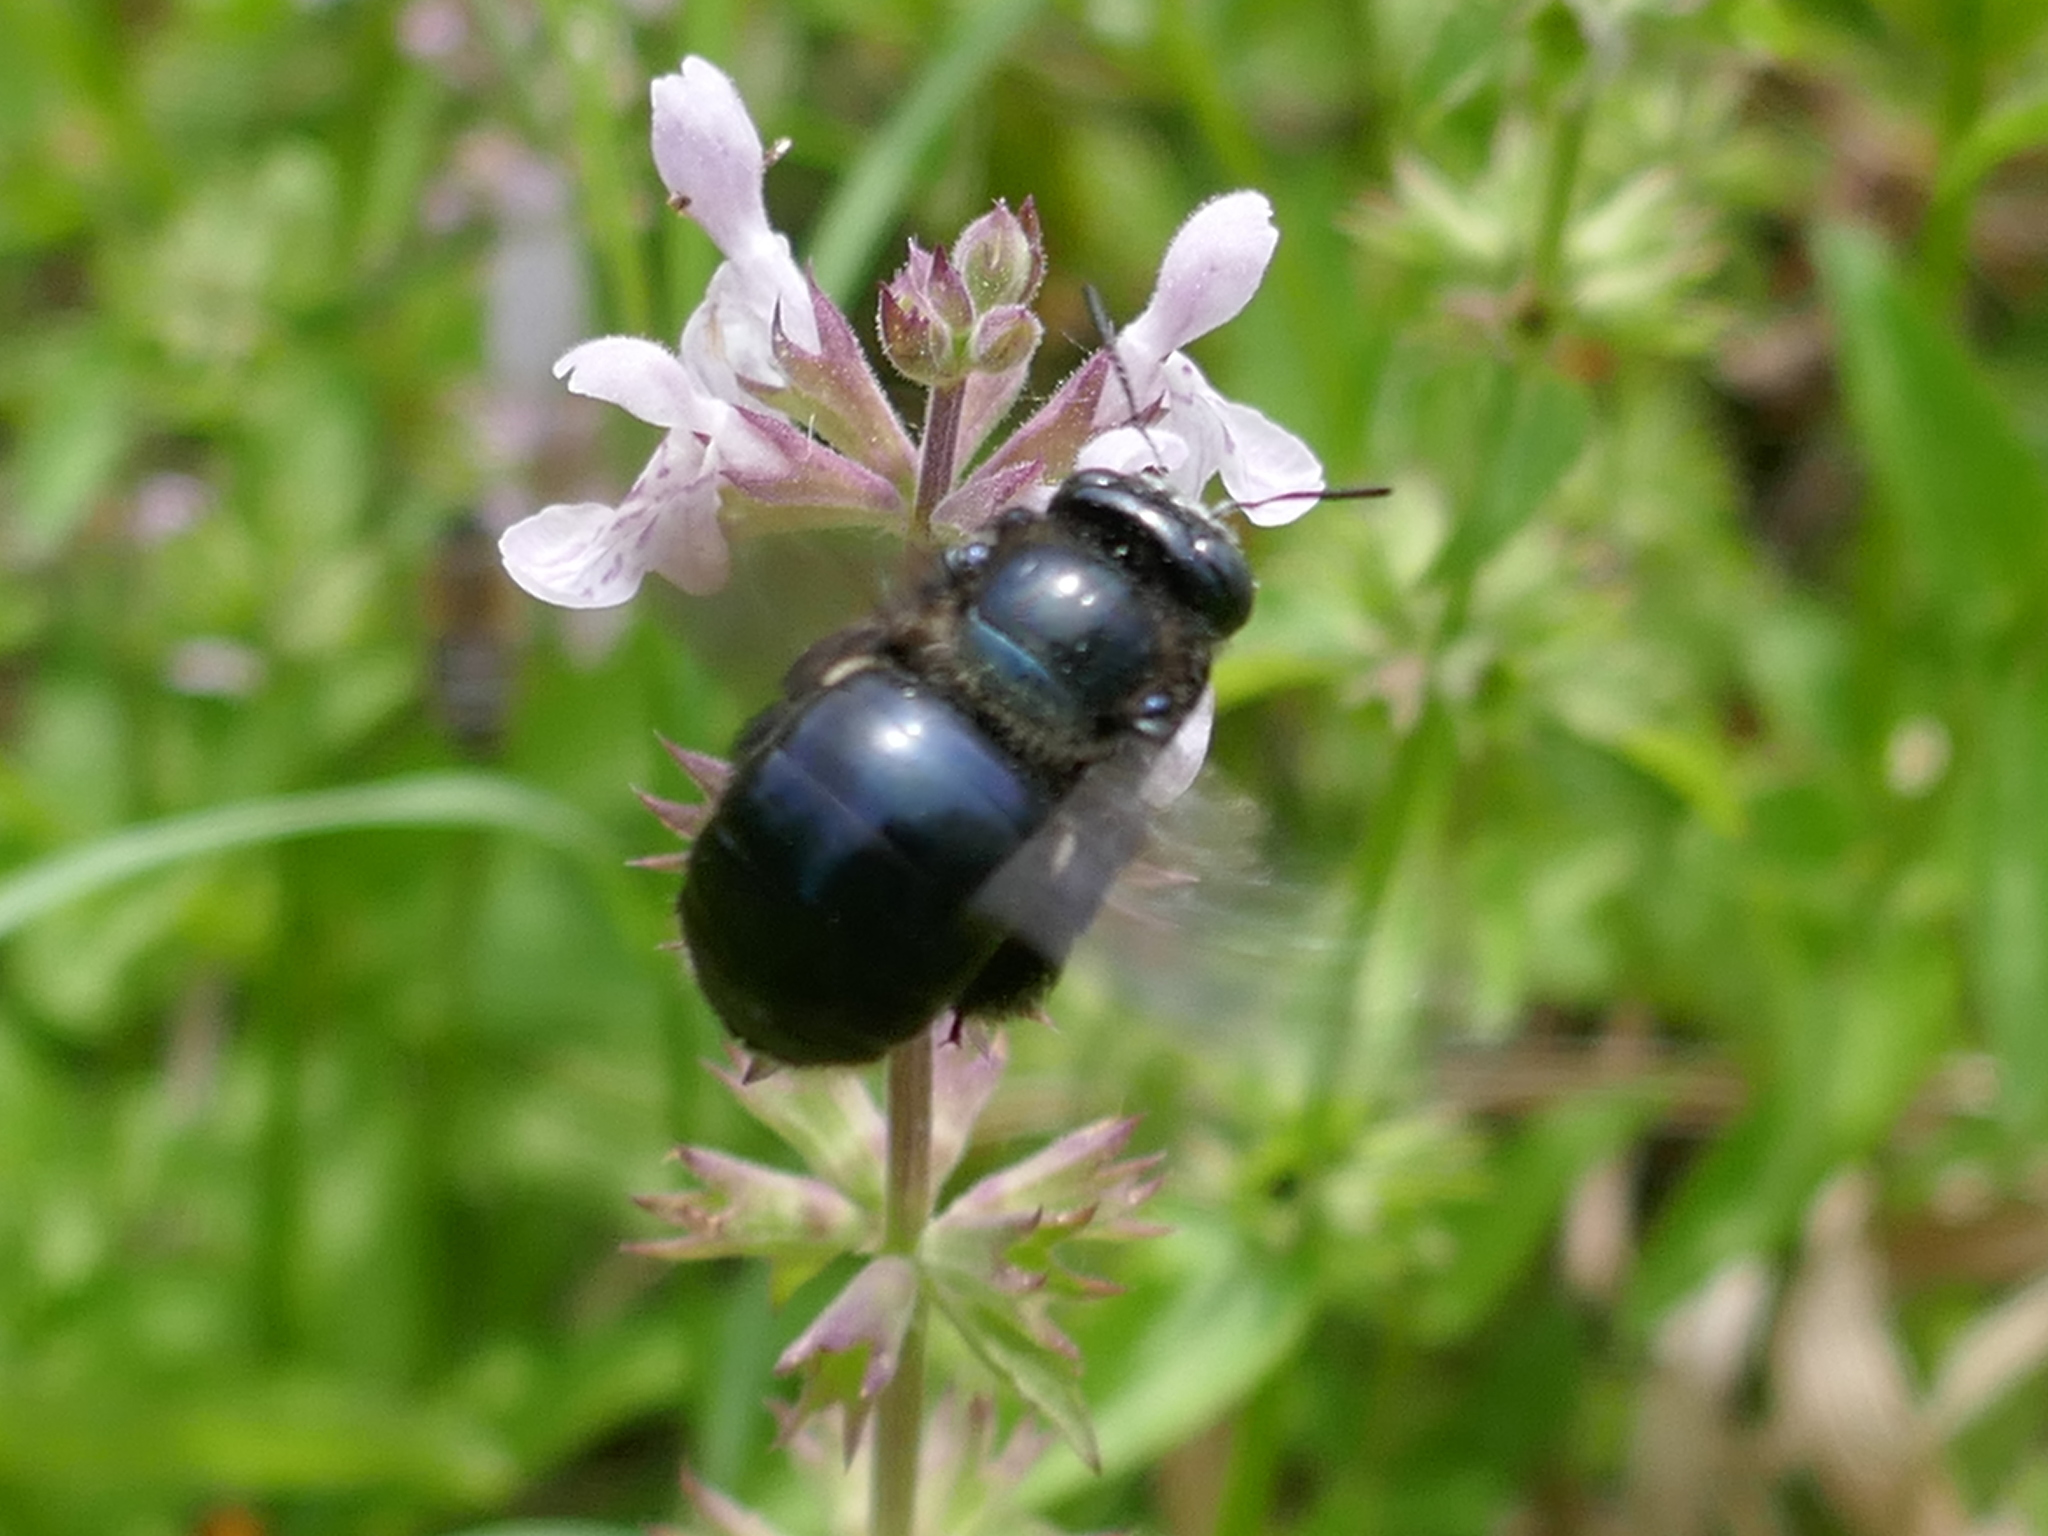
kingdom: Animalia
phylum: Arthropoda
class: Insecta
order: Hymenoptera
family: Apidae
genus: Xylocopa
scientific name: Xylocopa micans
